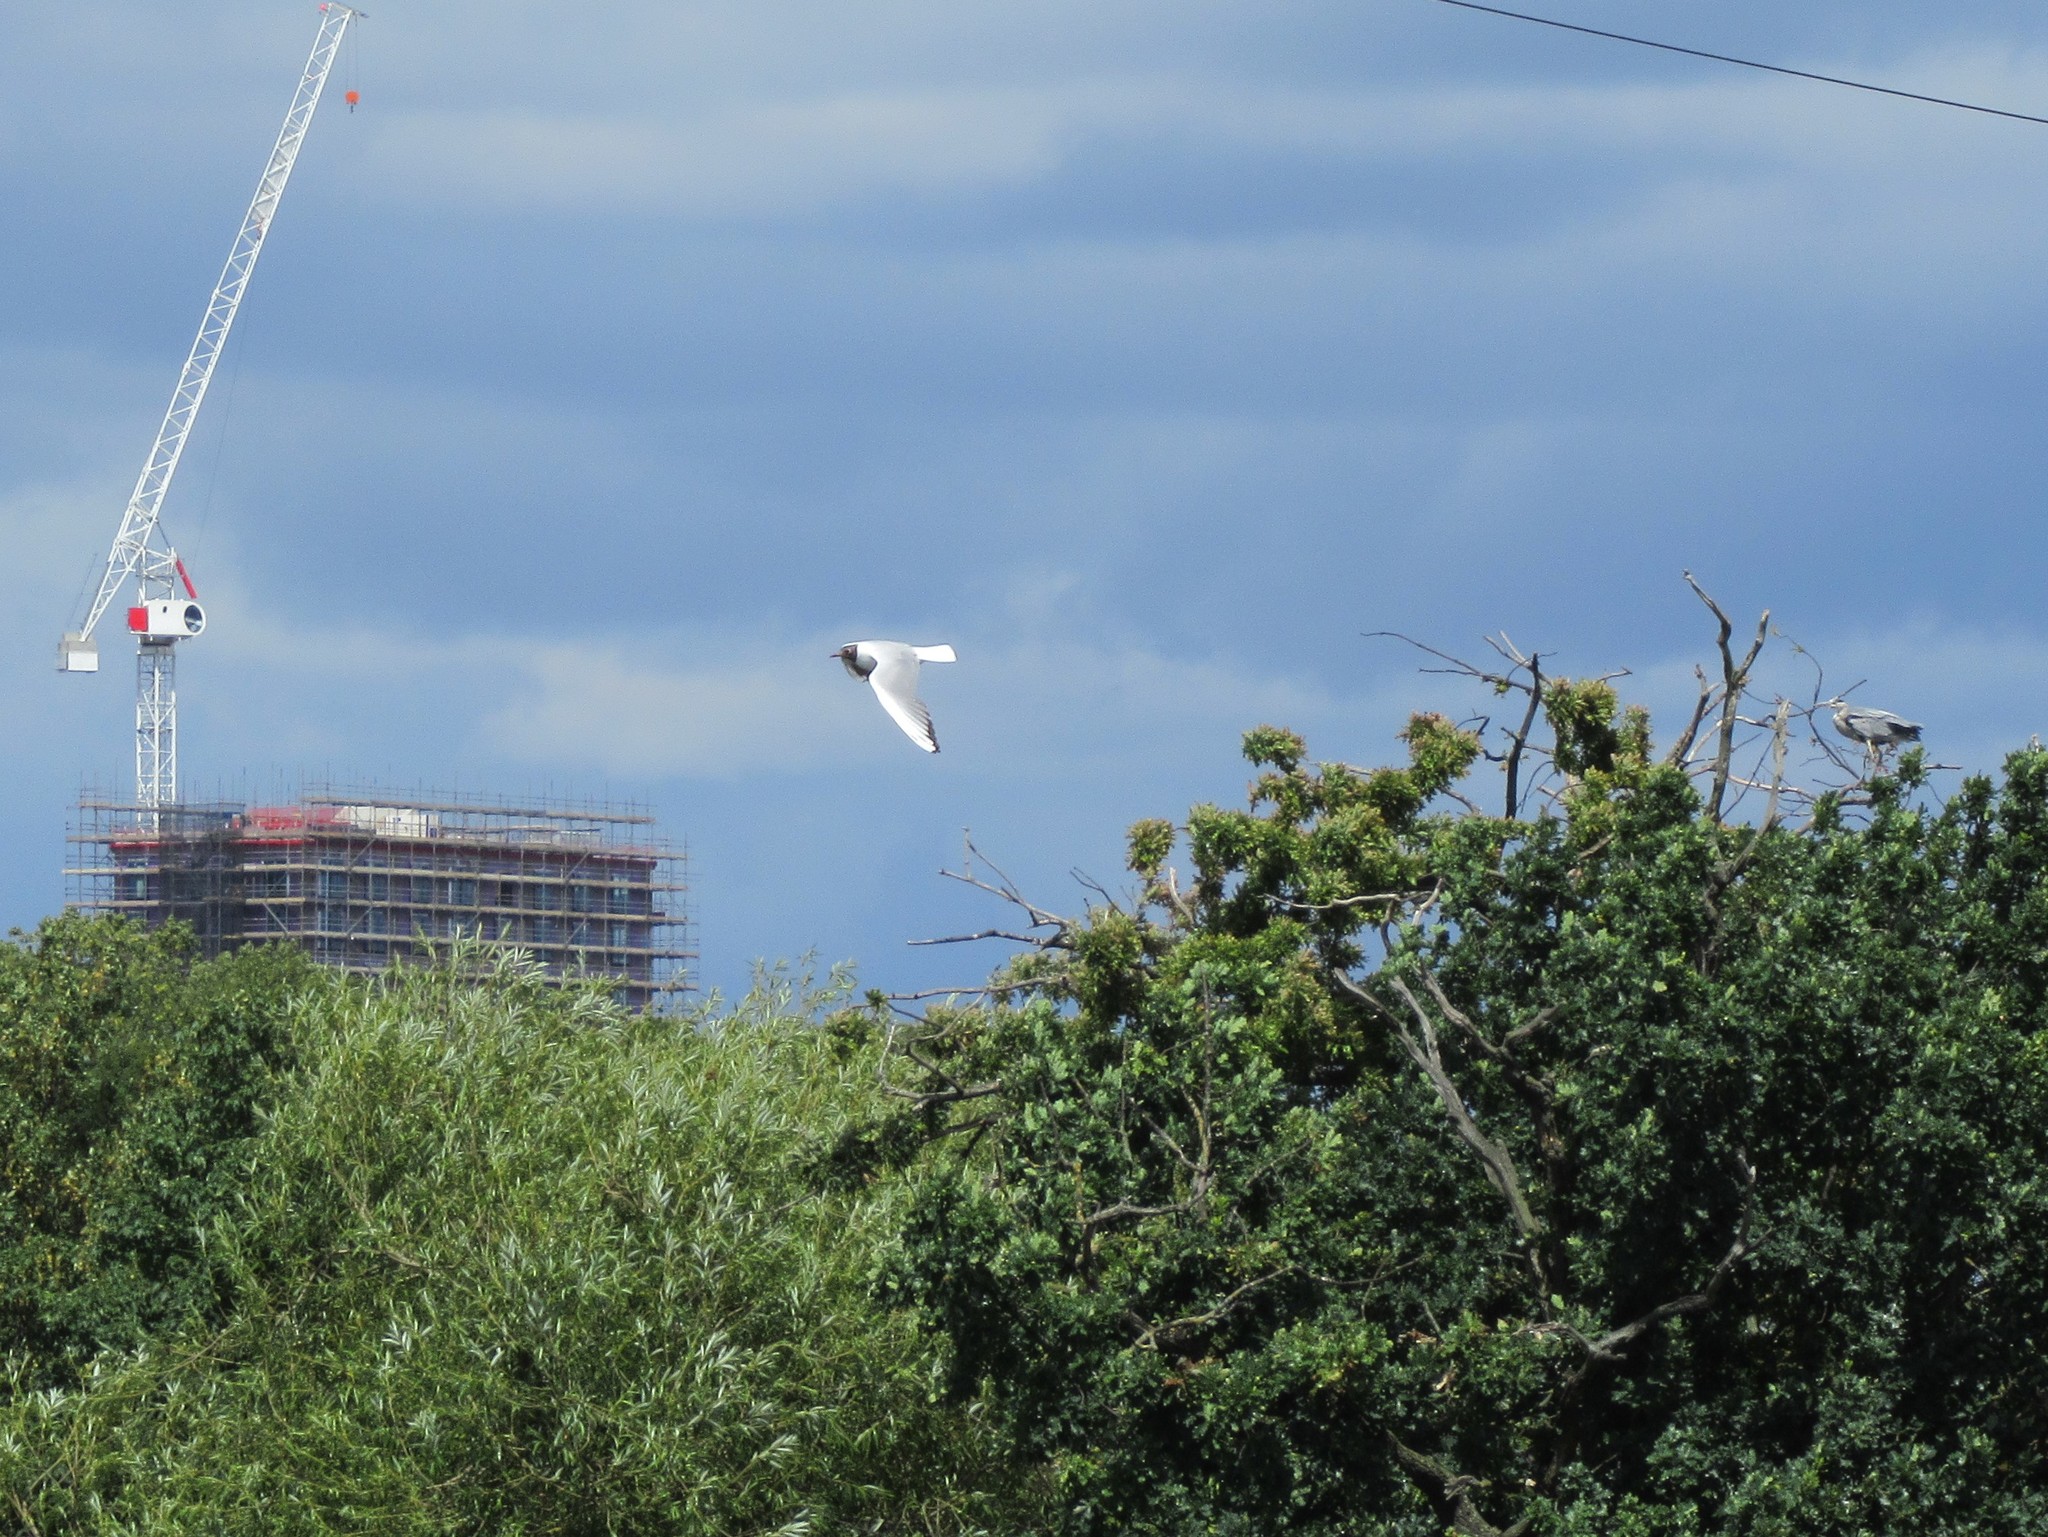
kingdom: Animalia
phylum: Chordata
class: Aves
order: Charadriiformes
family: Laridae
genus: Chroicocephalus
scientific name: Chroicocephalus ridibundus
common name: Black-headed gull
